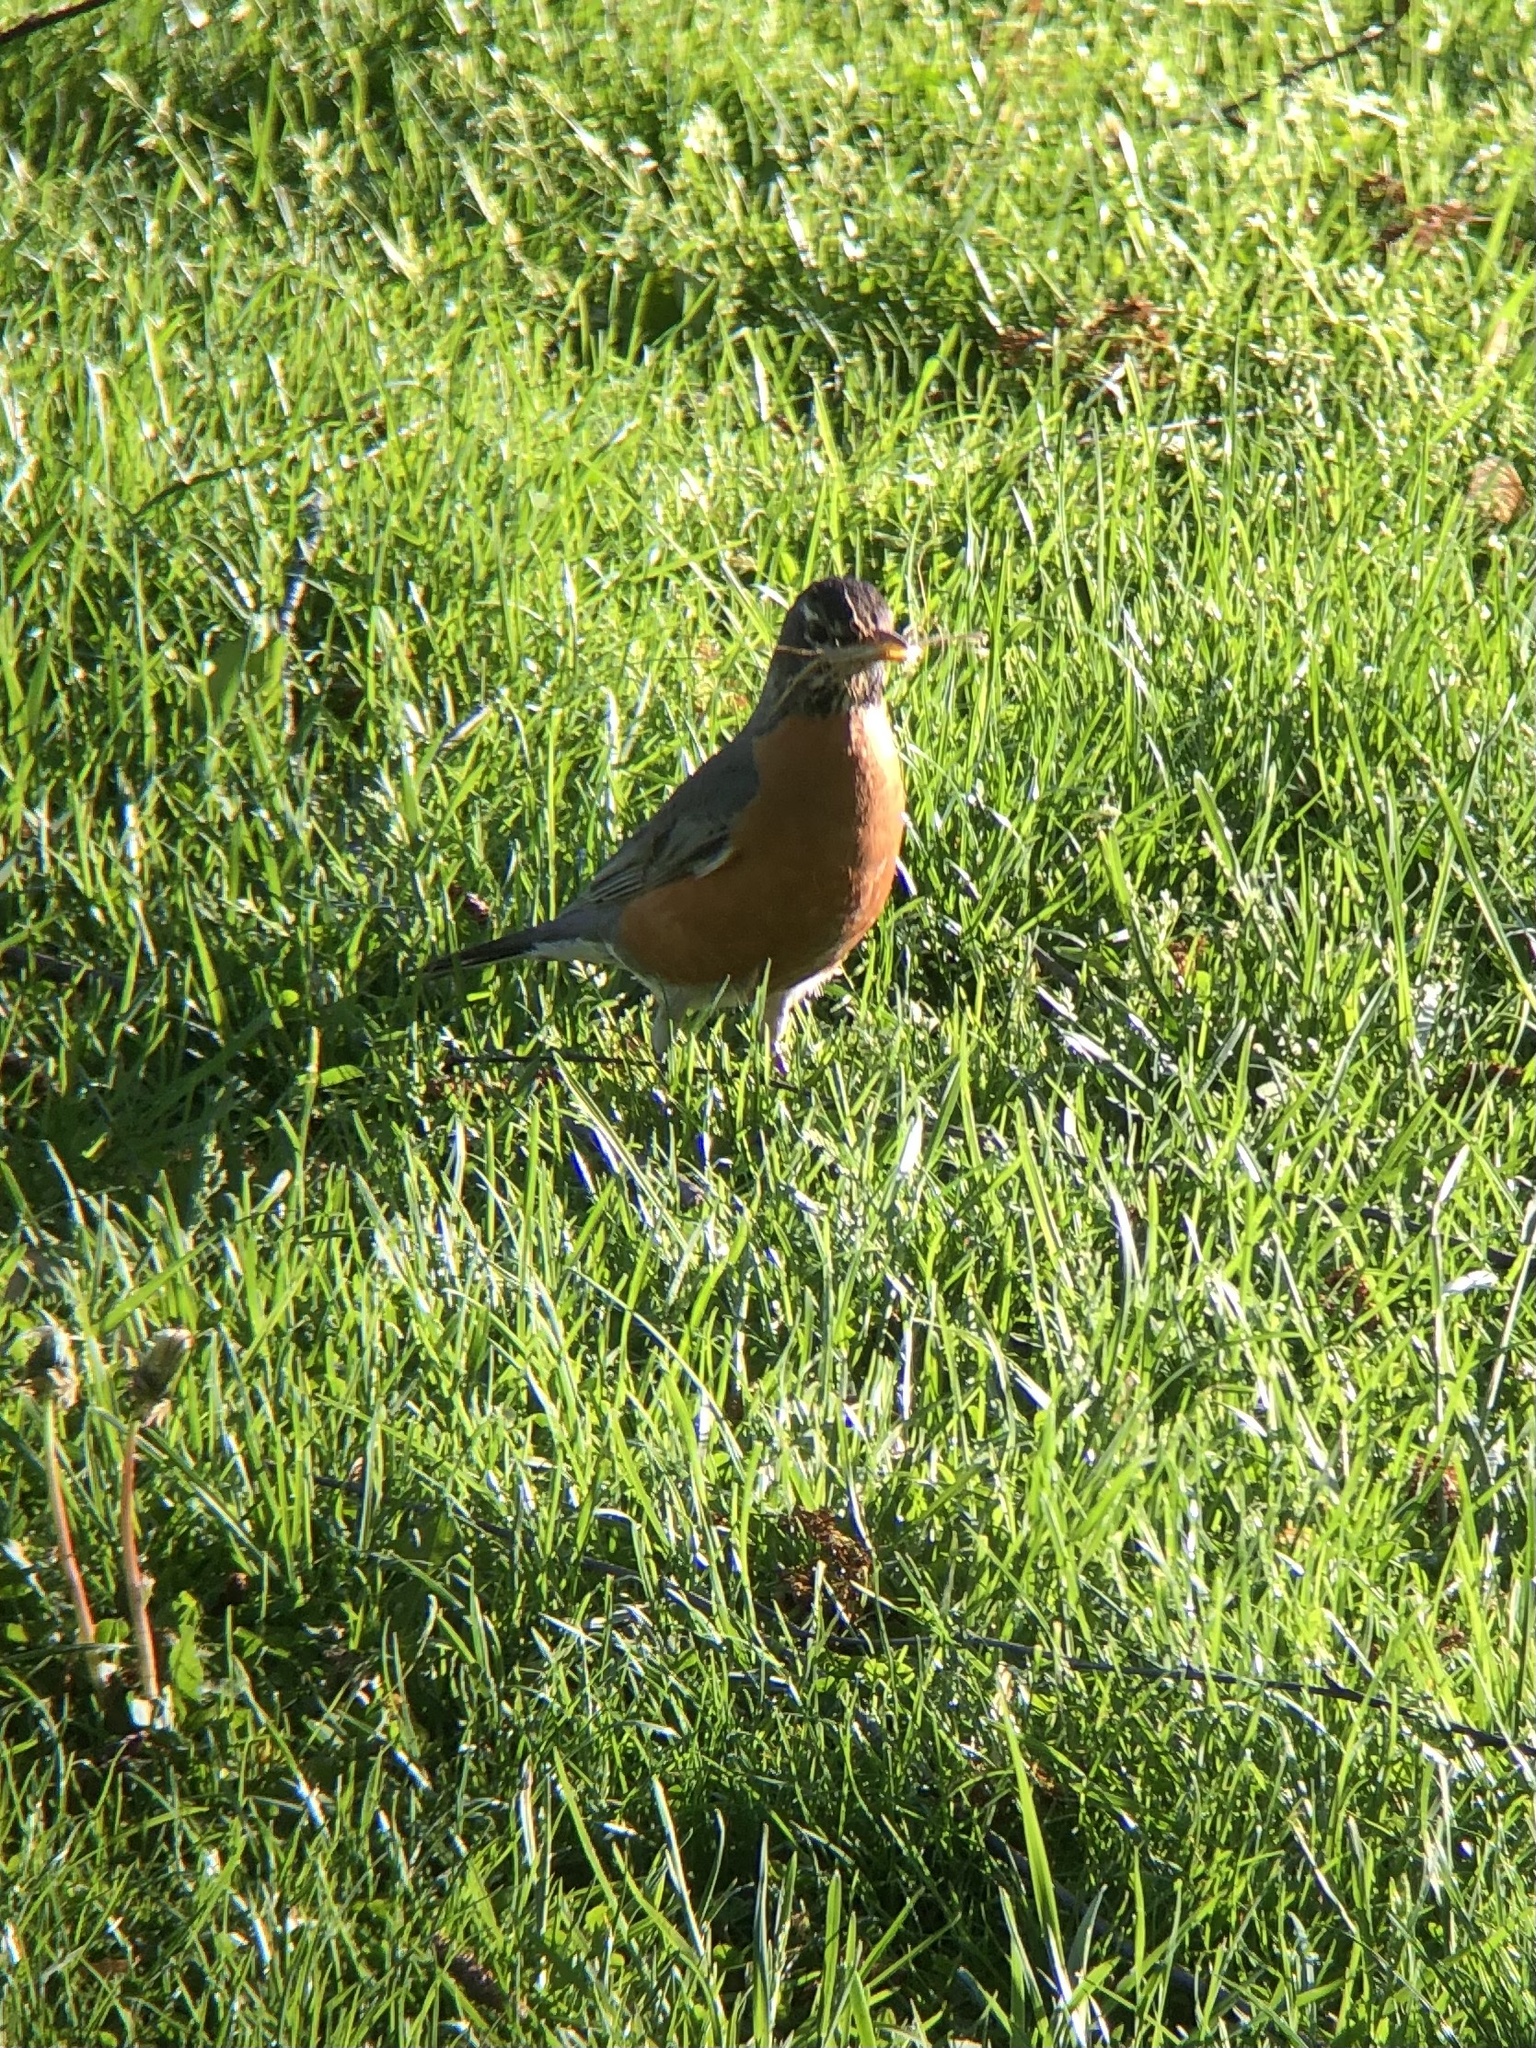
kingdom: Animalia
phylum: Chordata
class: Aves
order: Passeriformes
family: Turdidae
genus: Turdus
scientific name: Turdus migratorius
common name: American robin
